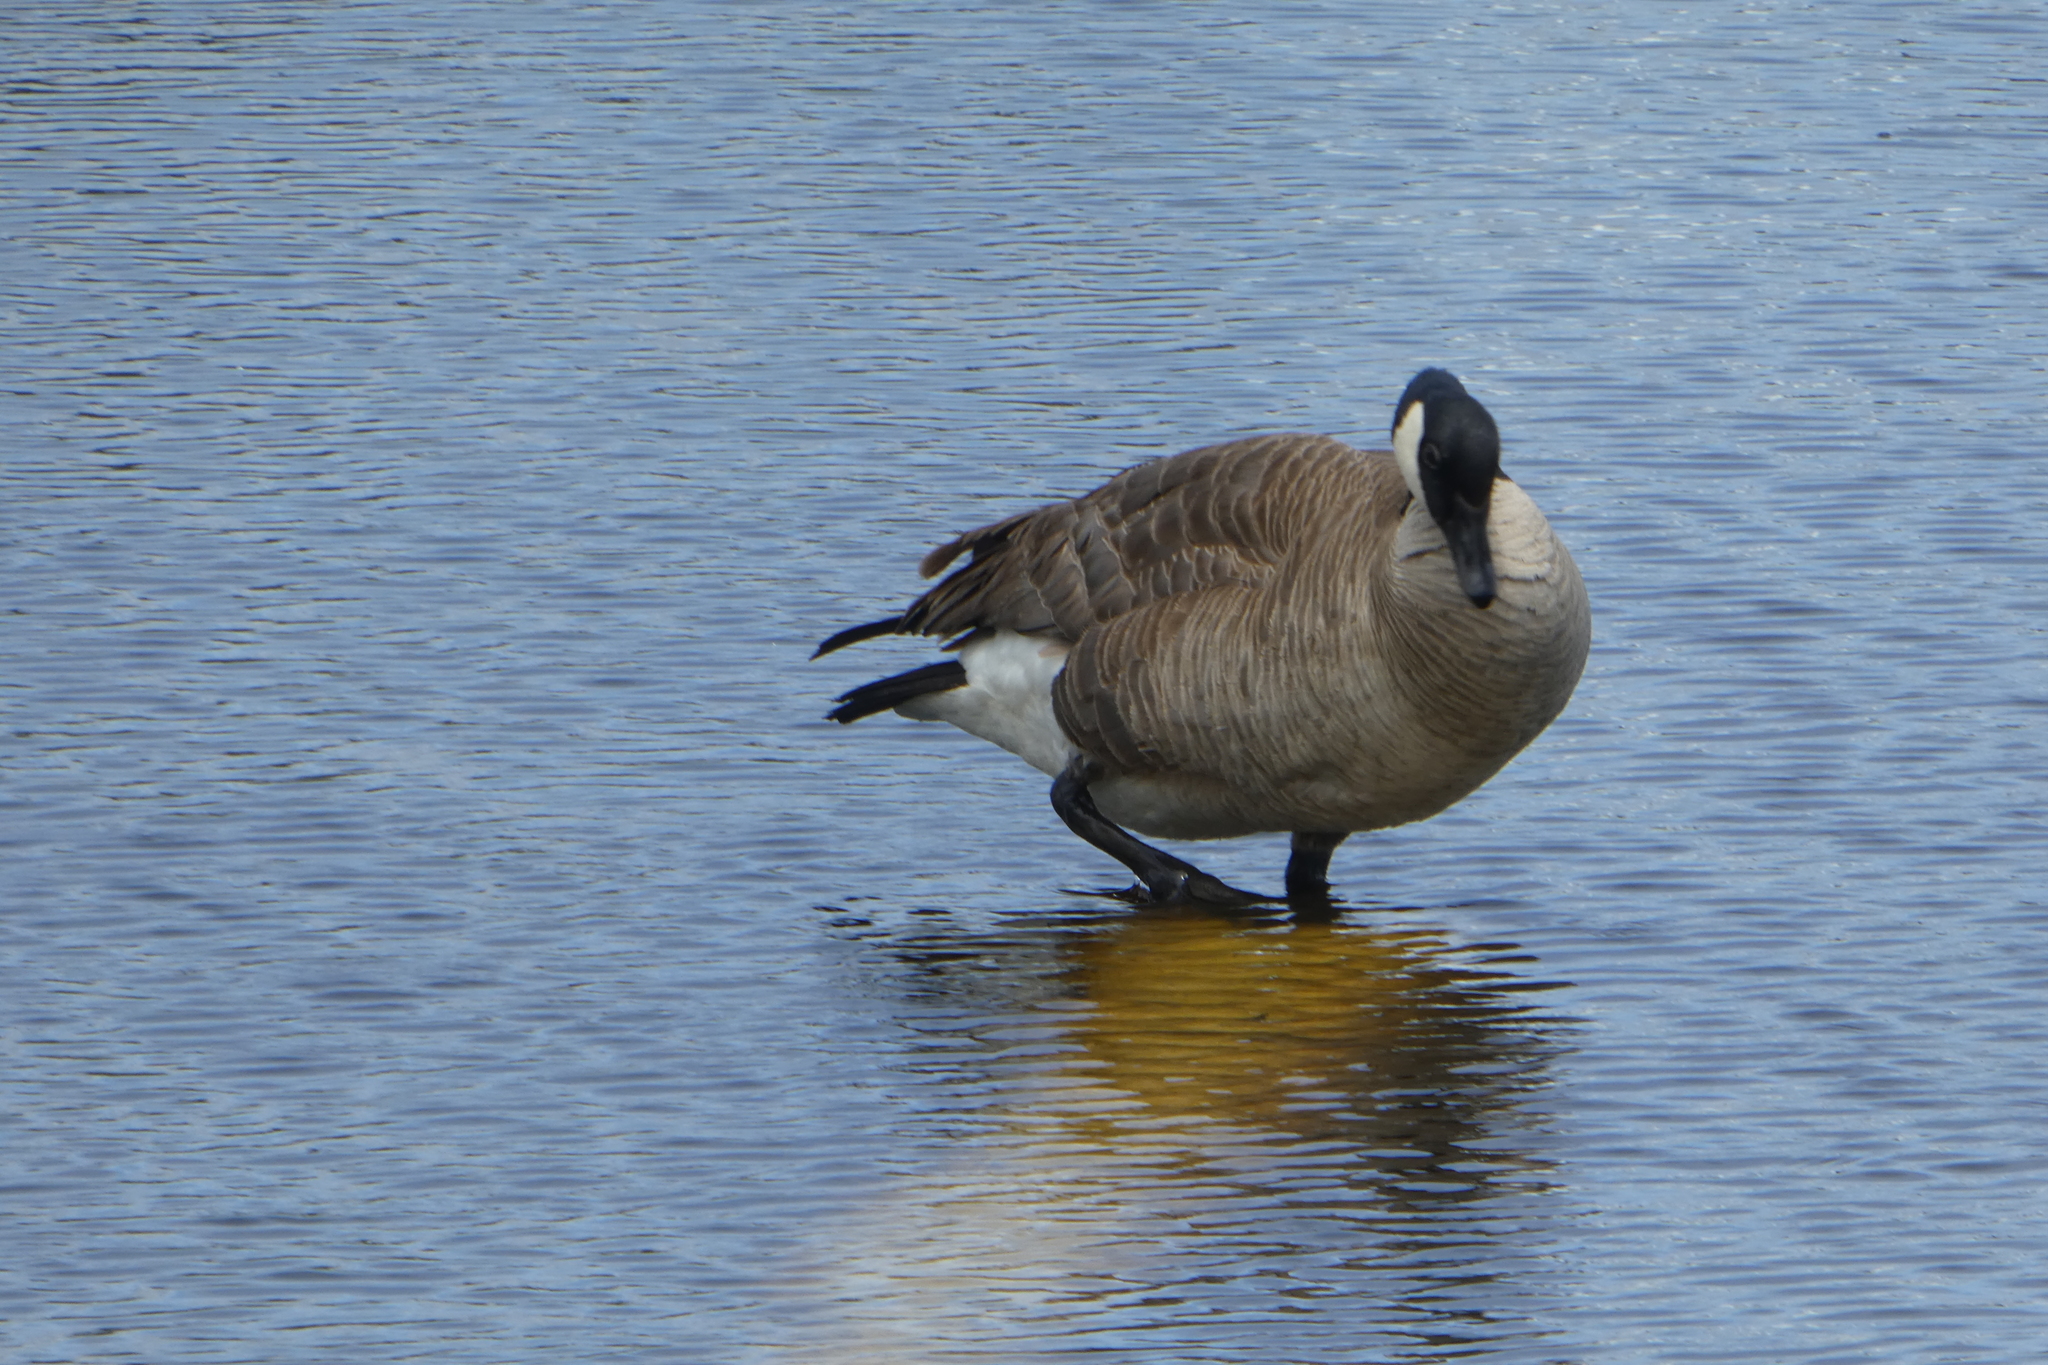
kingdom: Animalia
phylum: Chordata
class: Aves
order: Anseriformes
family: Anatidae
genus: Branta
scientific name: Branta canadensis
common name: Canada goose
